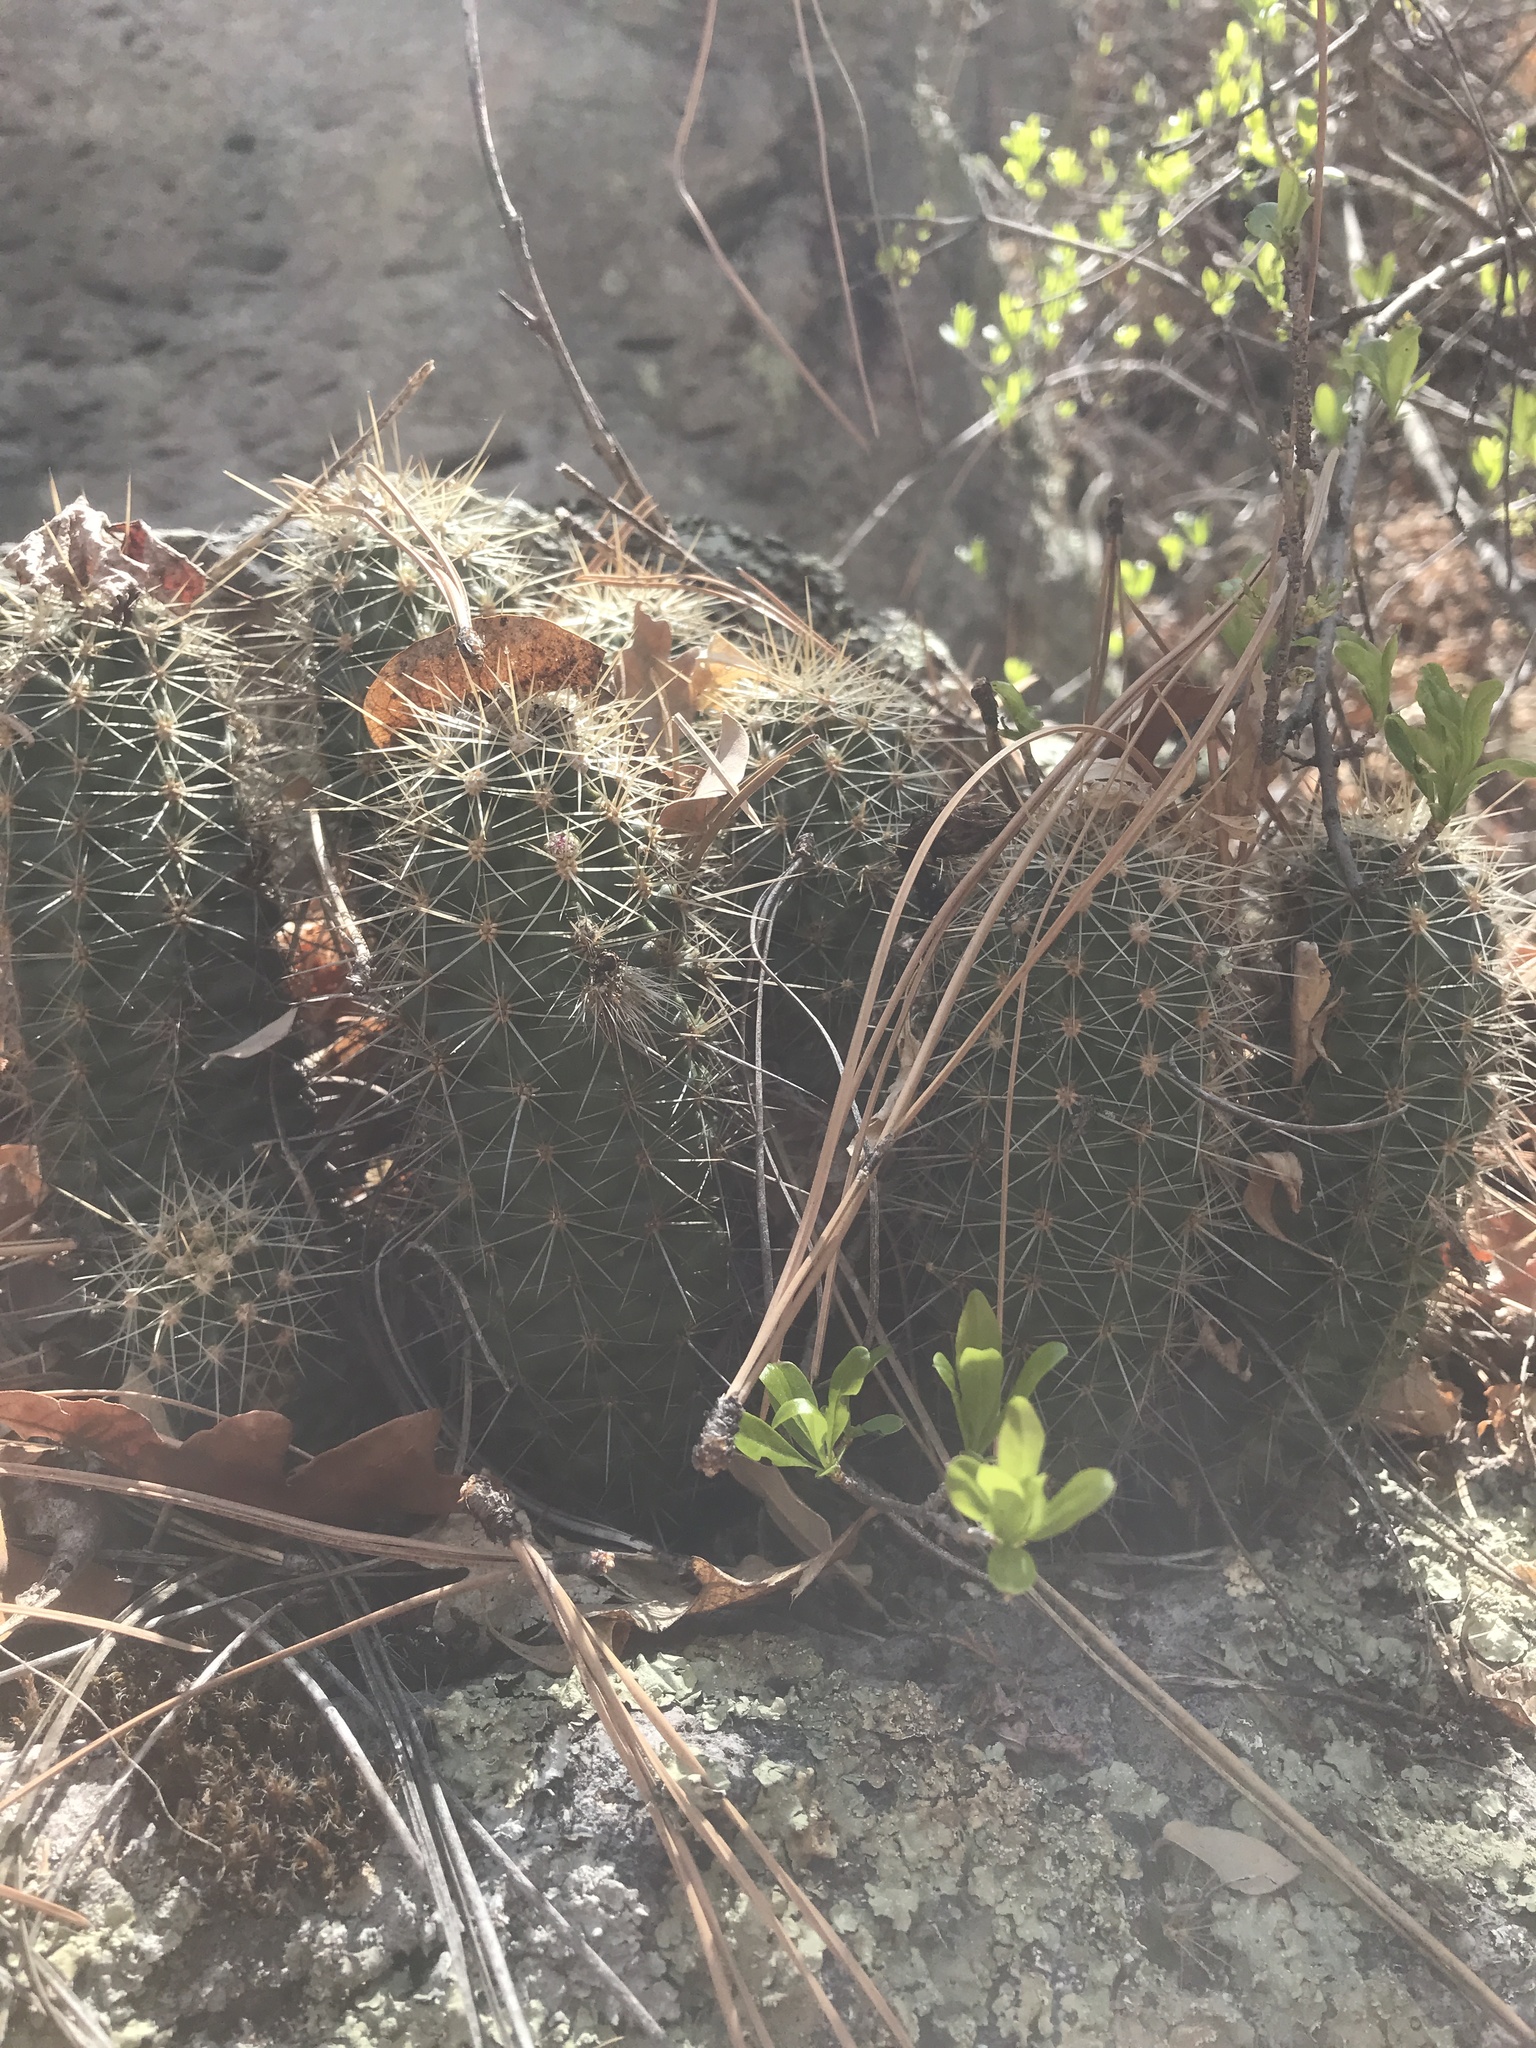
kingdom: Plantae
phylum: Tracheophyta
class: Magnoliopsida
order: Caryophyllales
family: Cactaceae
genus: Echinocereus
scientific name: Echinocereus coccineus
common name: Scarlet hedgehog cactus
